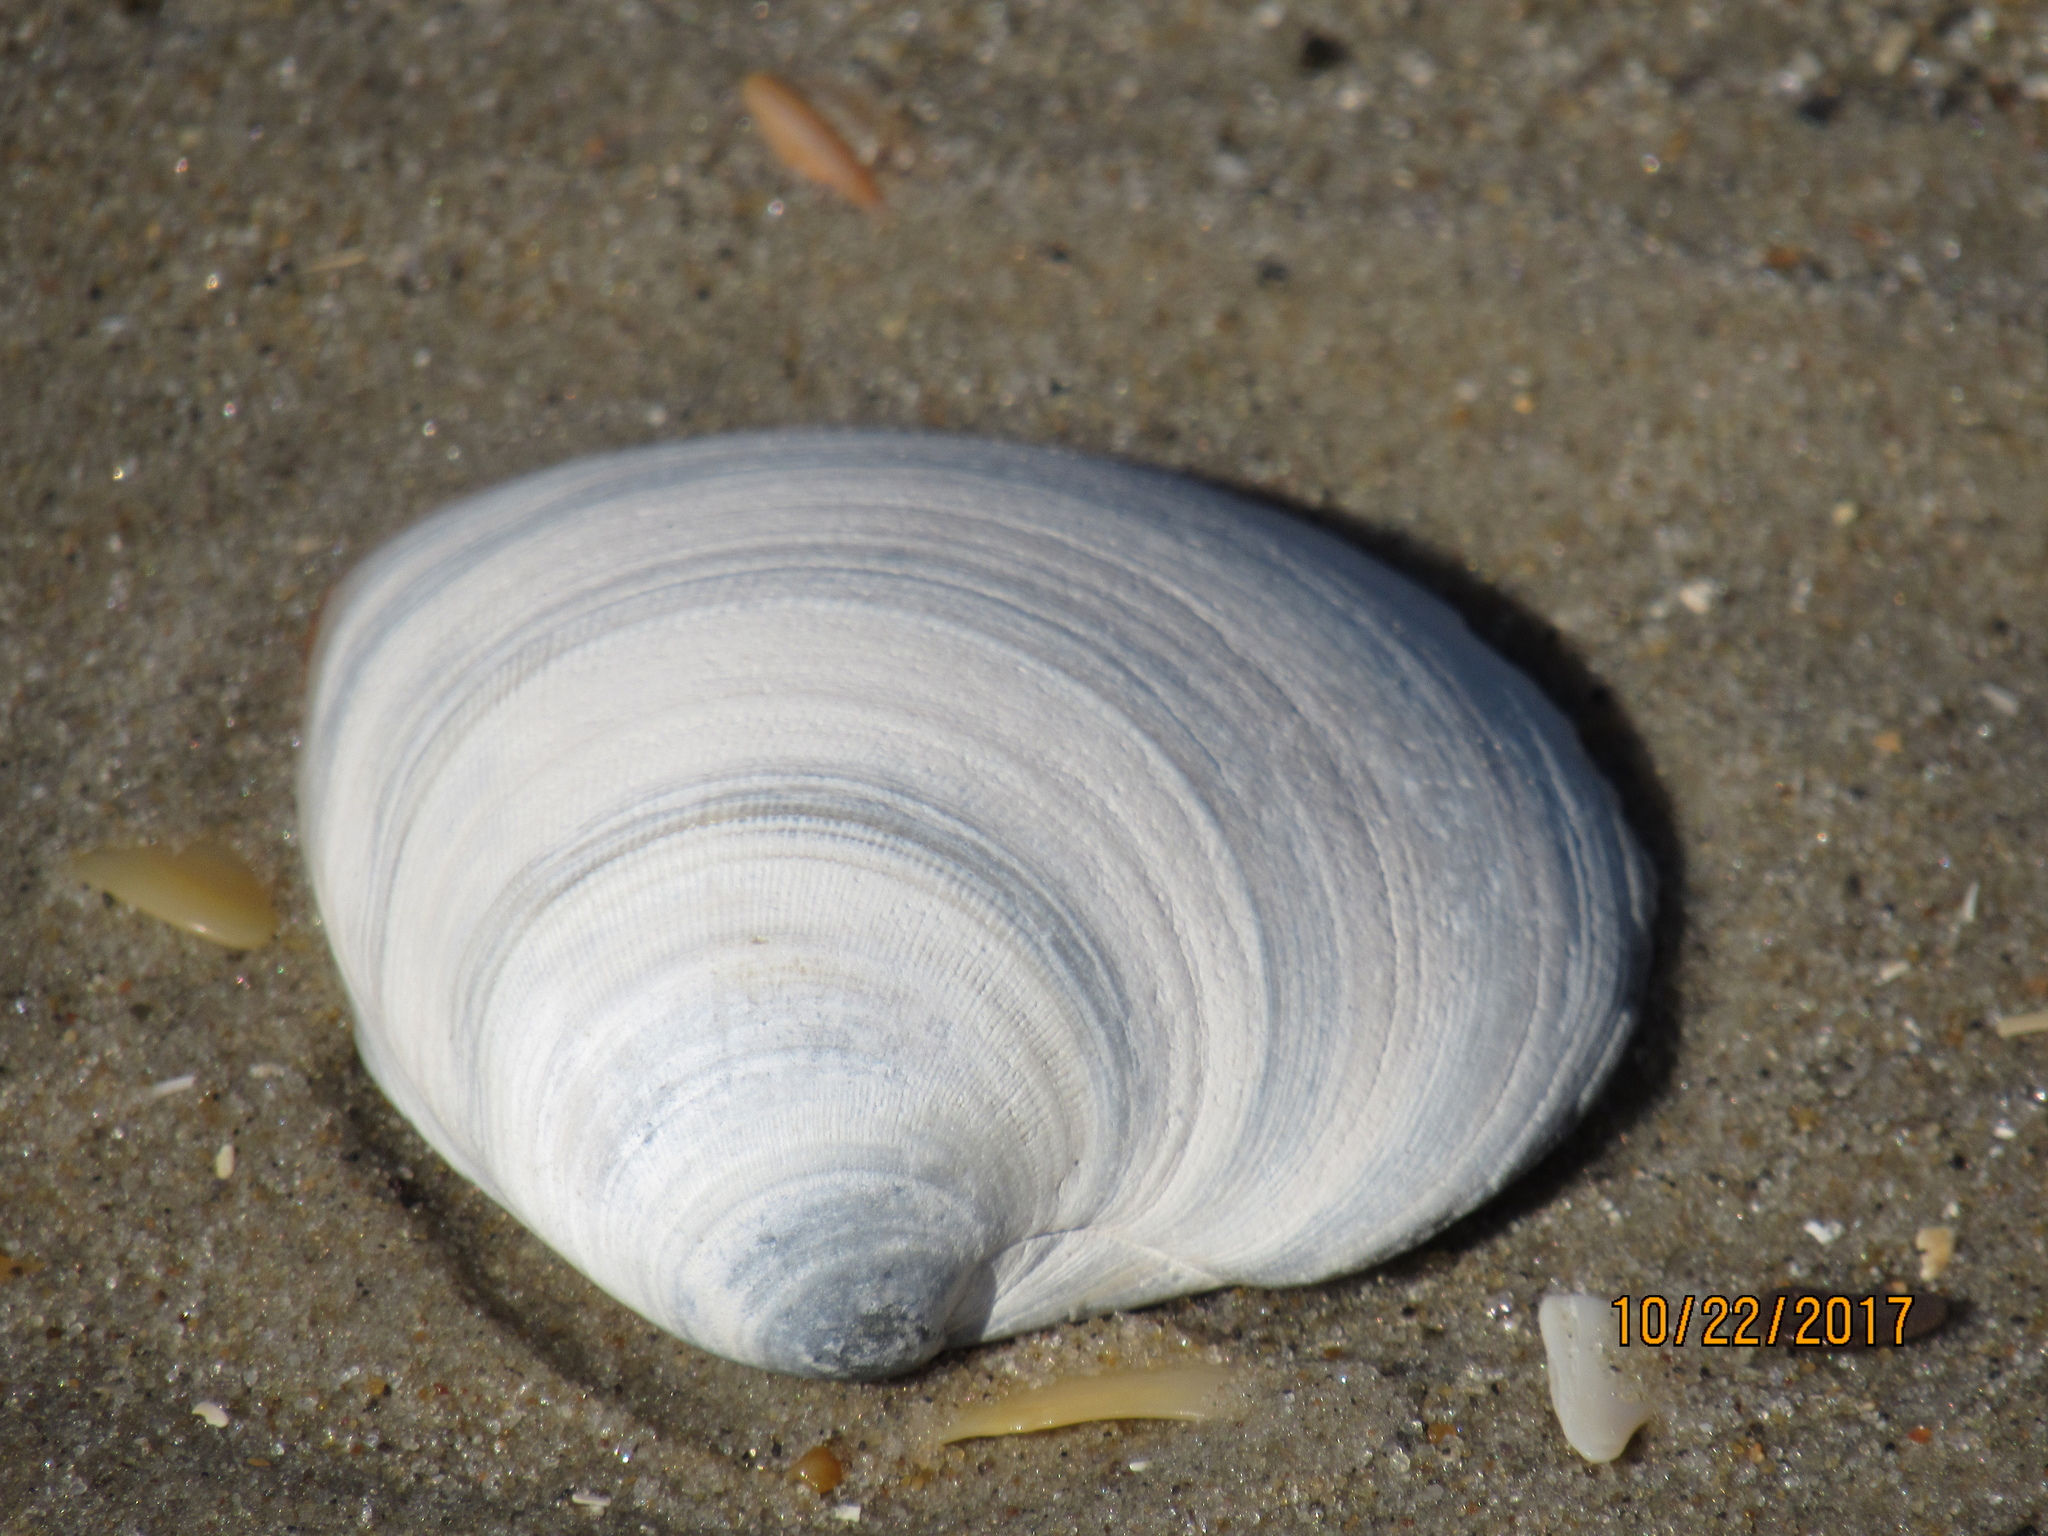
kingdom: Animalia
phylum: Mollusca
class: Bivalvia
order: Venerida
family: Veneridae
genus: Mercenaria
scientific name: Mercenaria mercenaria
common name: American hard-shelled clam
